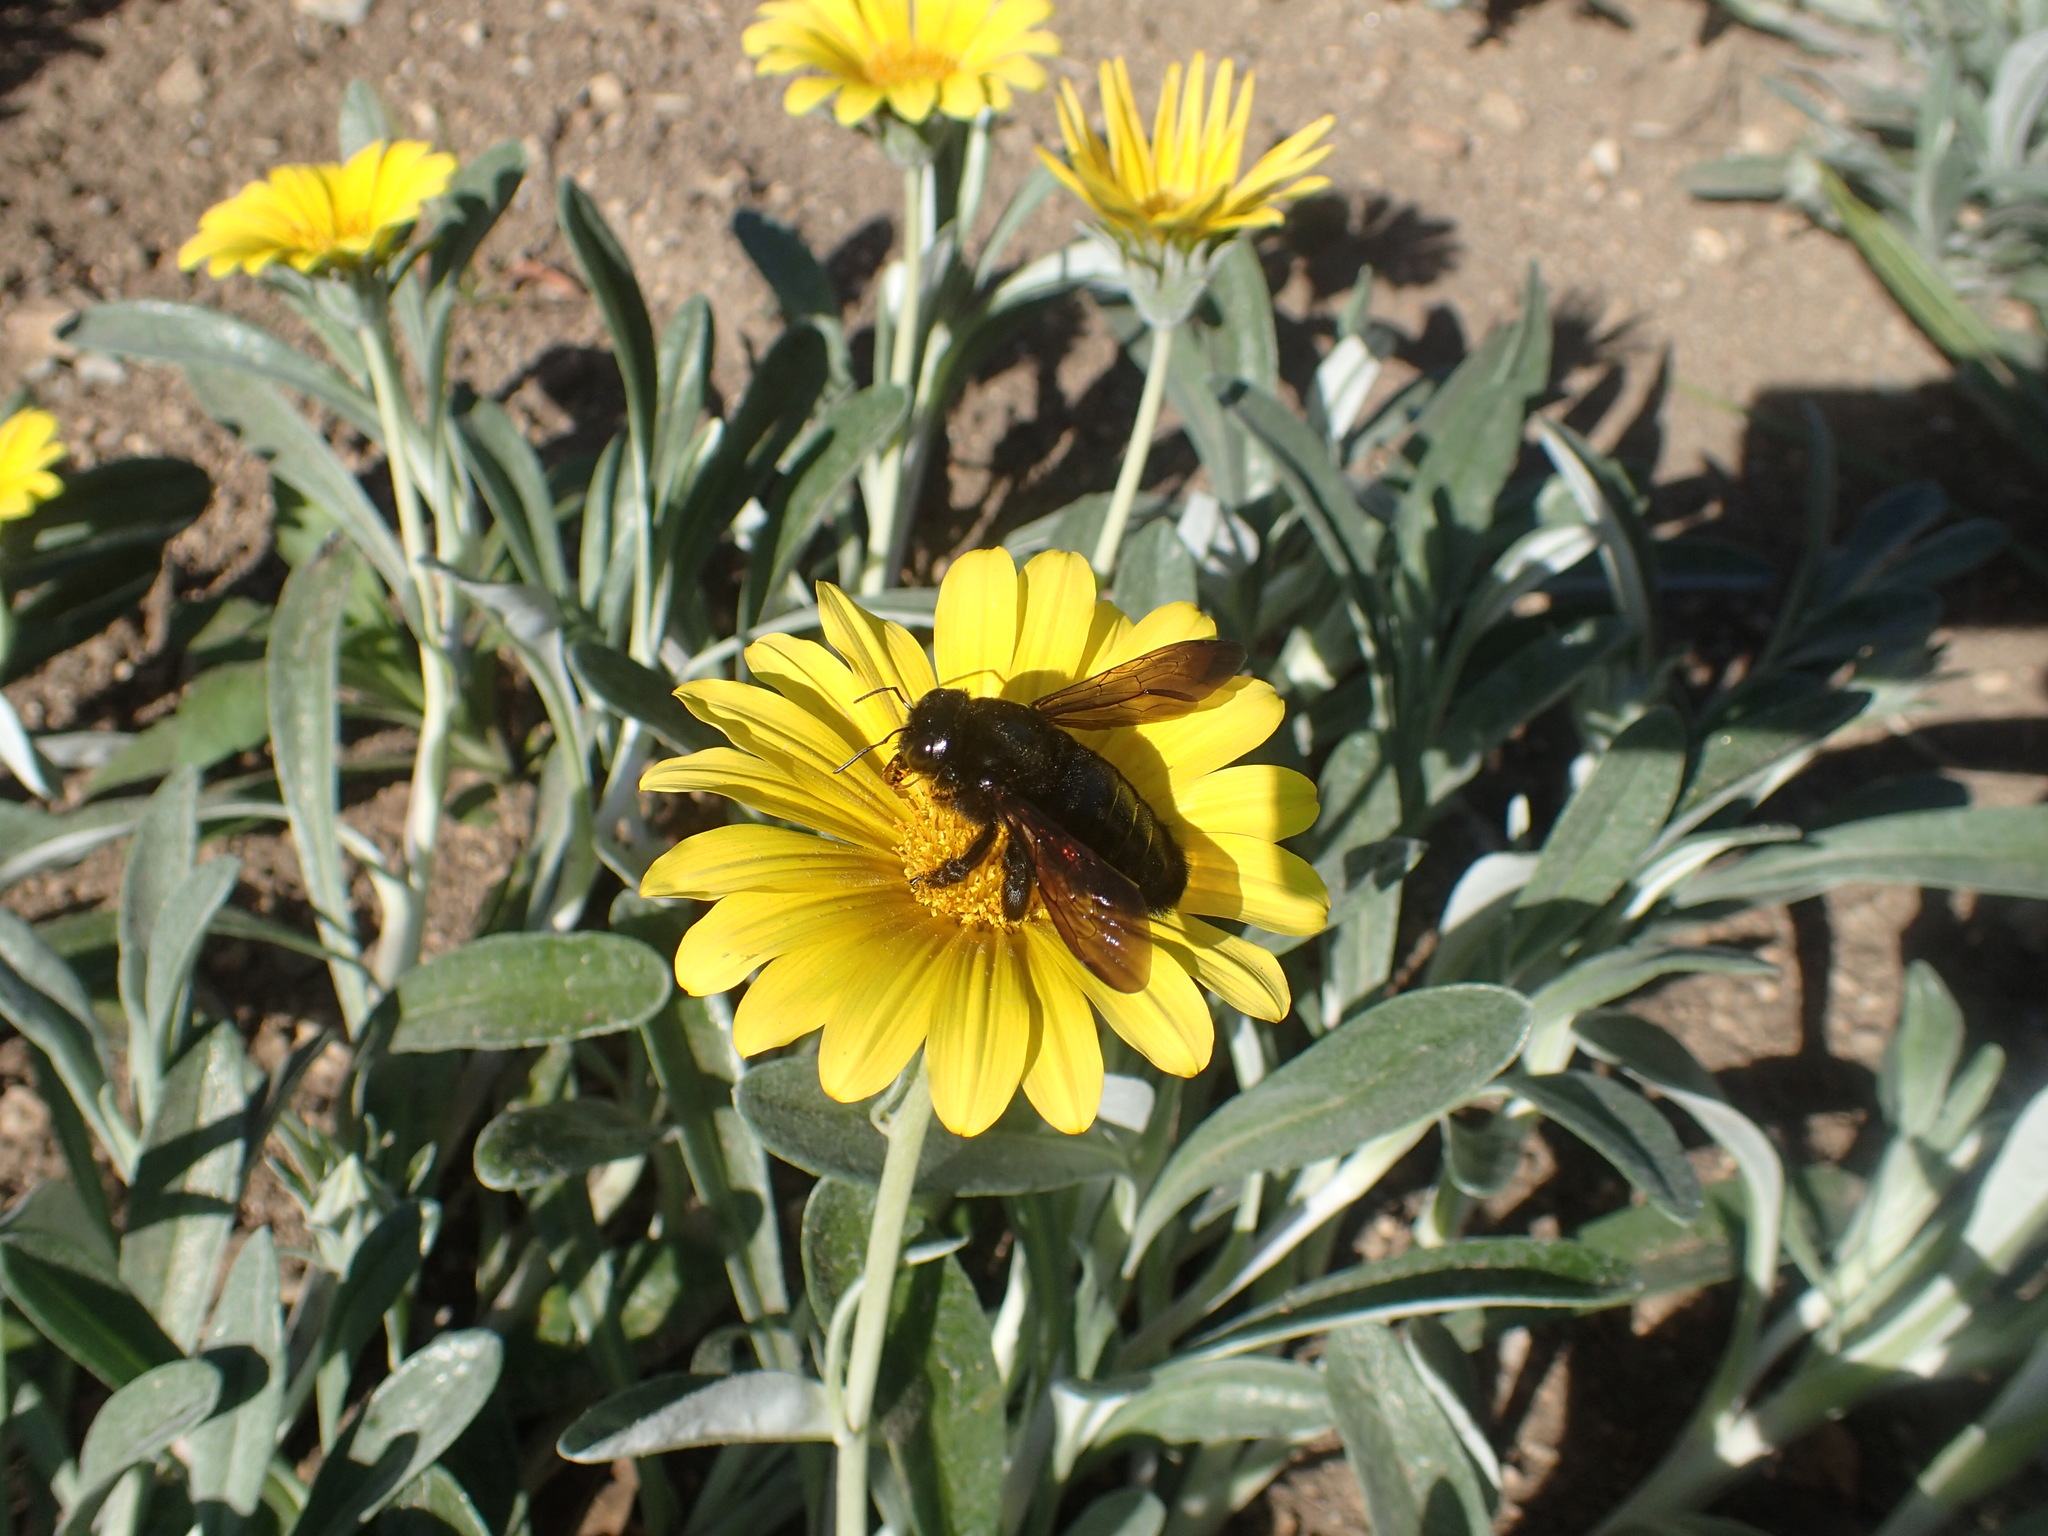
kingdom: Animalia
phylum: Arthropoda
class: Insecta
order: Hymenoptera
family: Apidae
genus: Xylocopa
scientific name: Xylocopa sonorina
